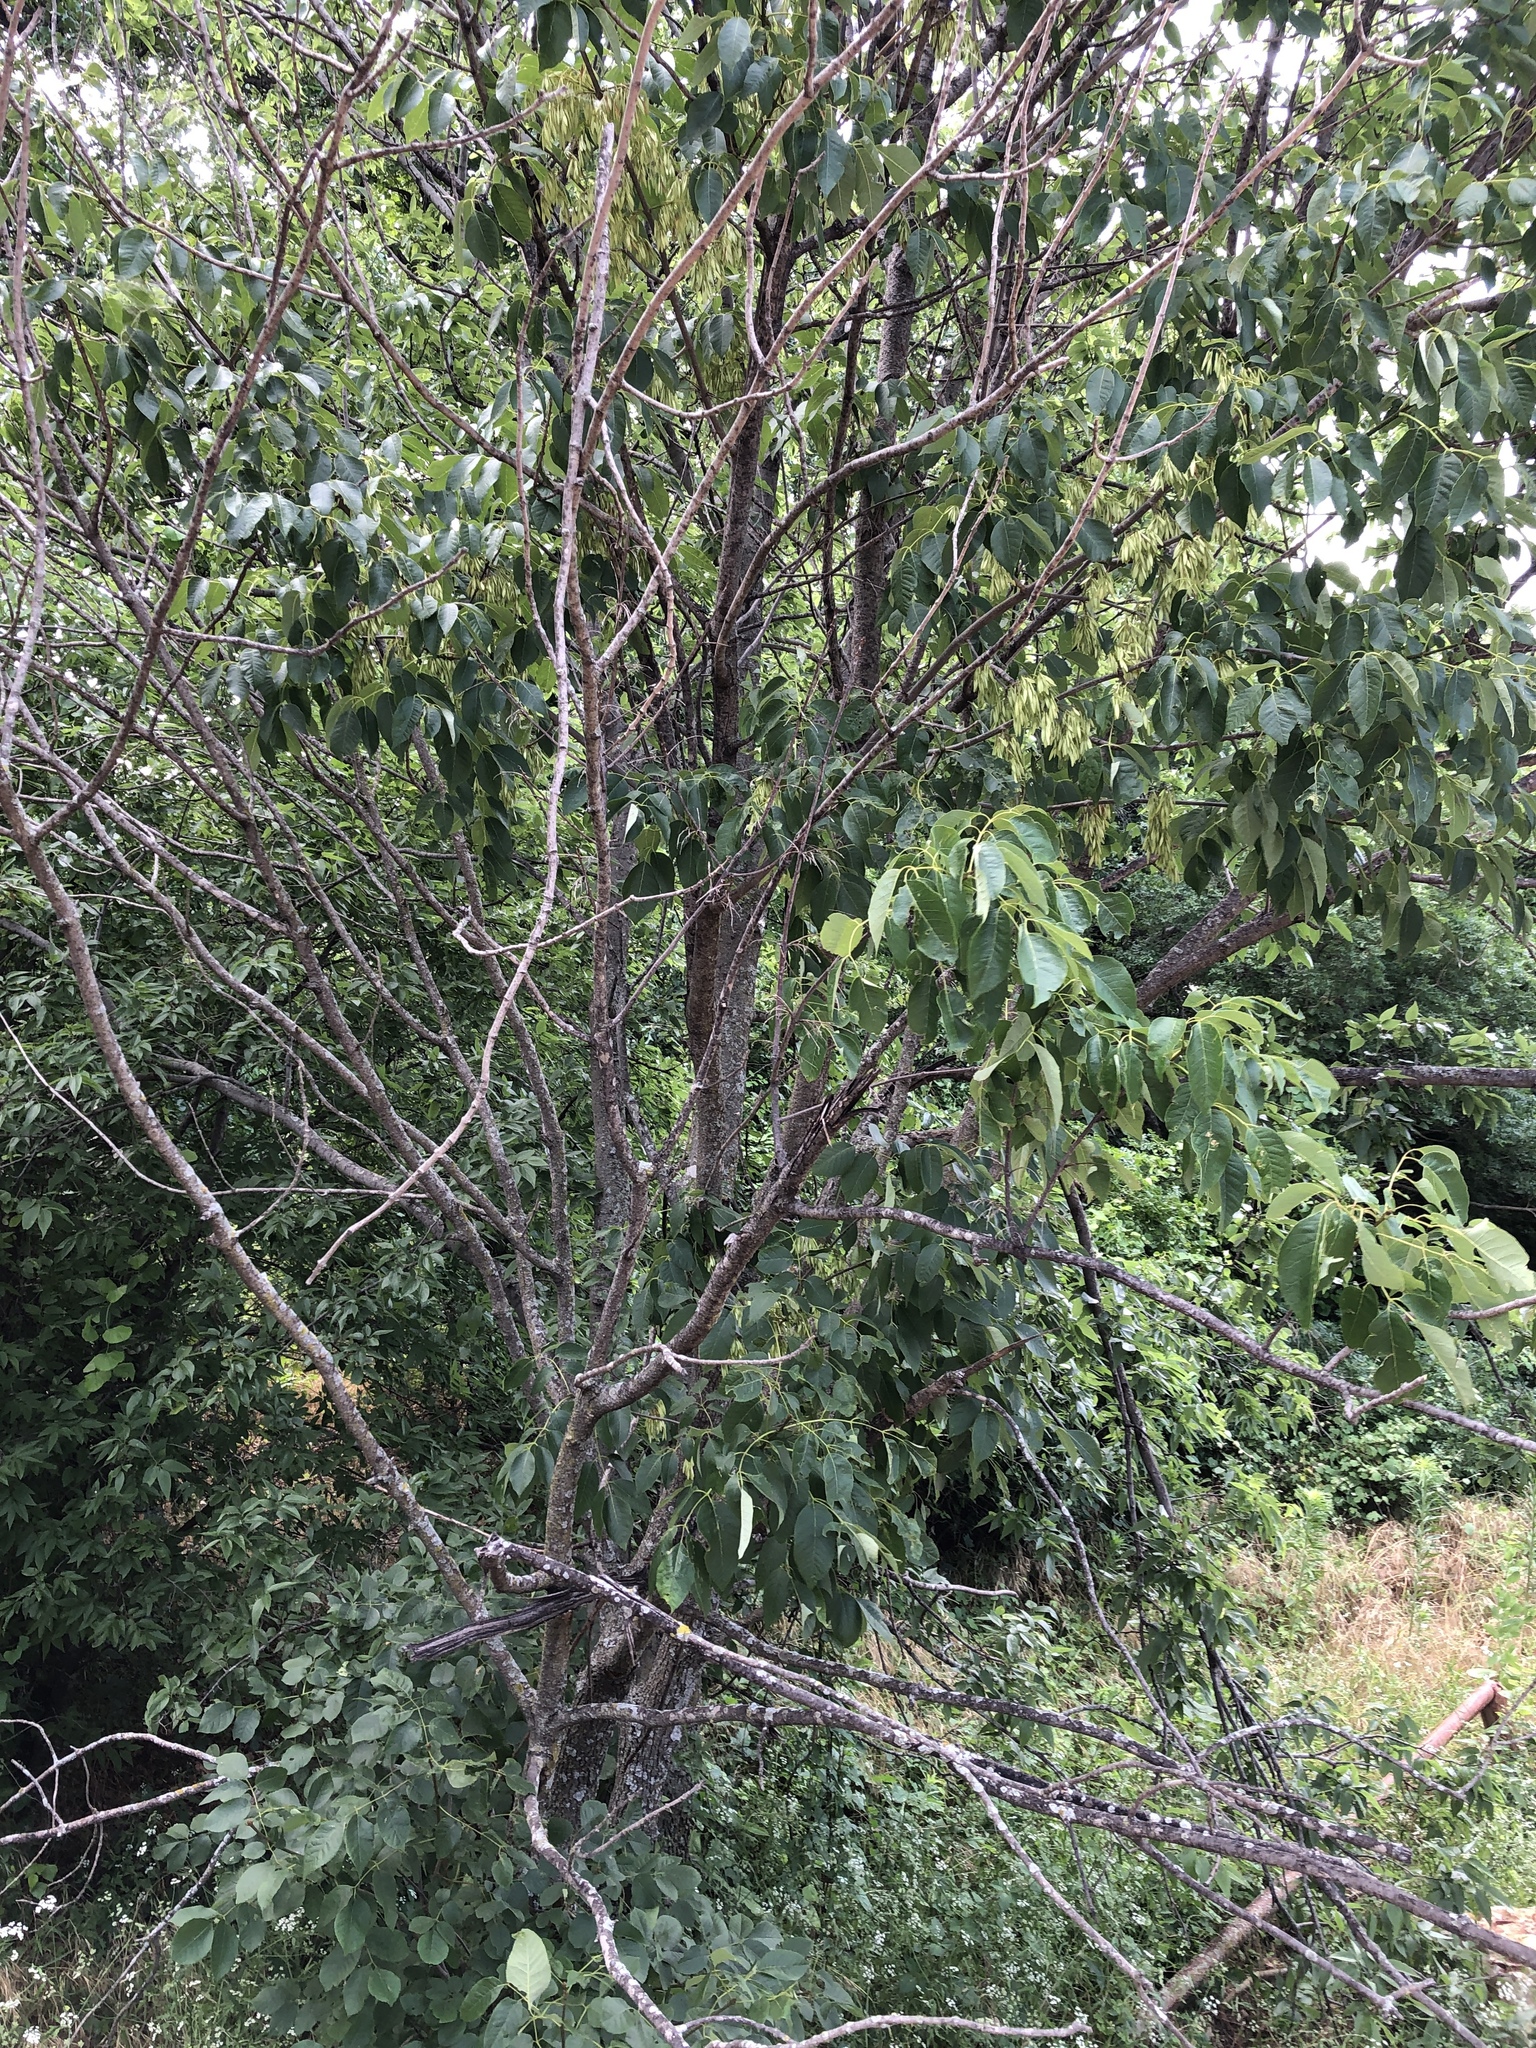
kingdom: Plantae
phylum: Tracheophyta
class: Magnoliopsida
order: Lamiales
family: Oleaceae
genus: Fraxinus
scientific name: Fraxinus albicans
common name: Texas ash
